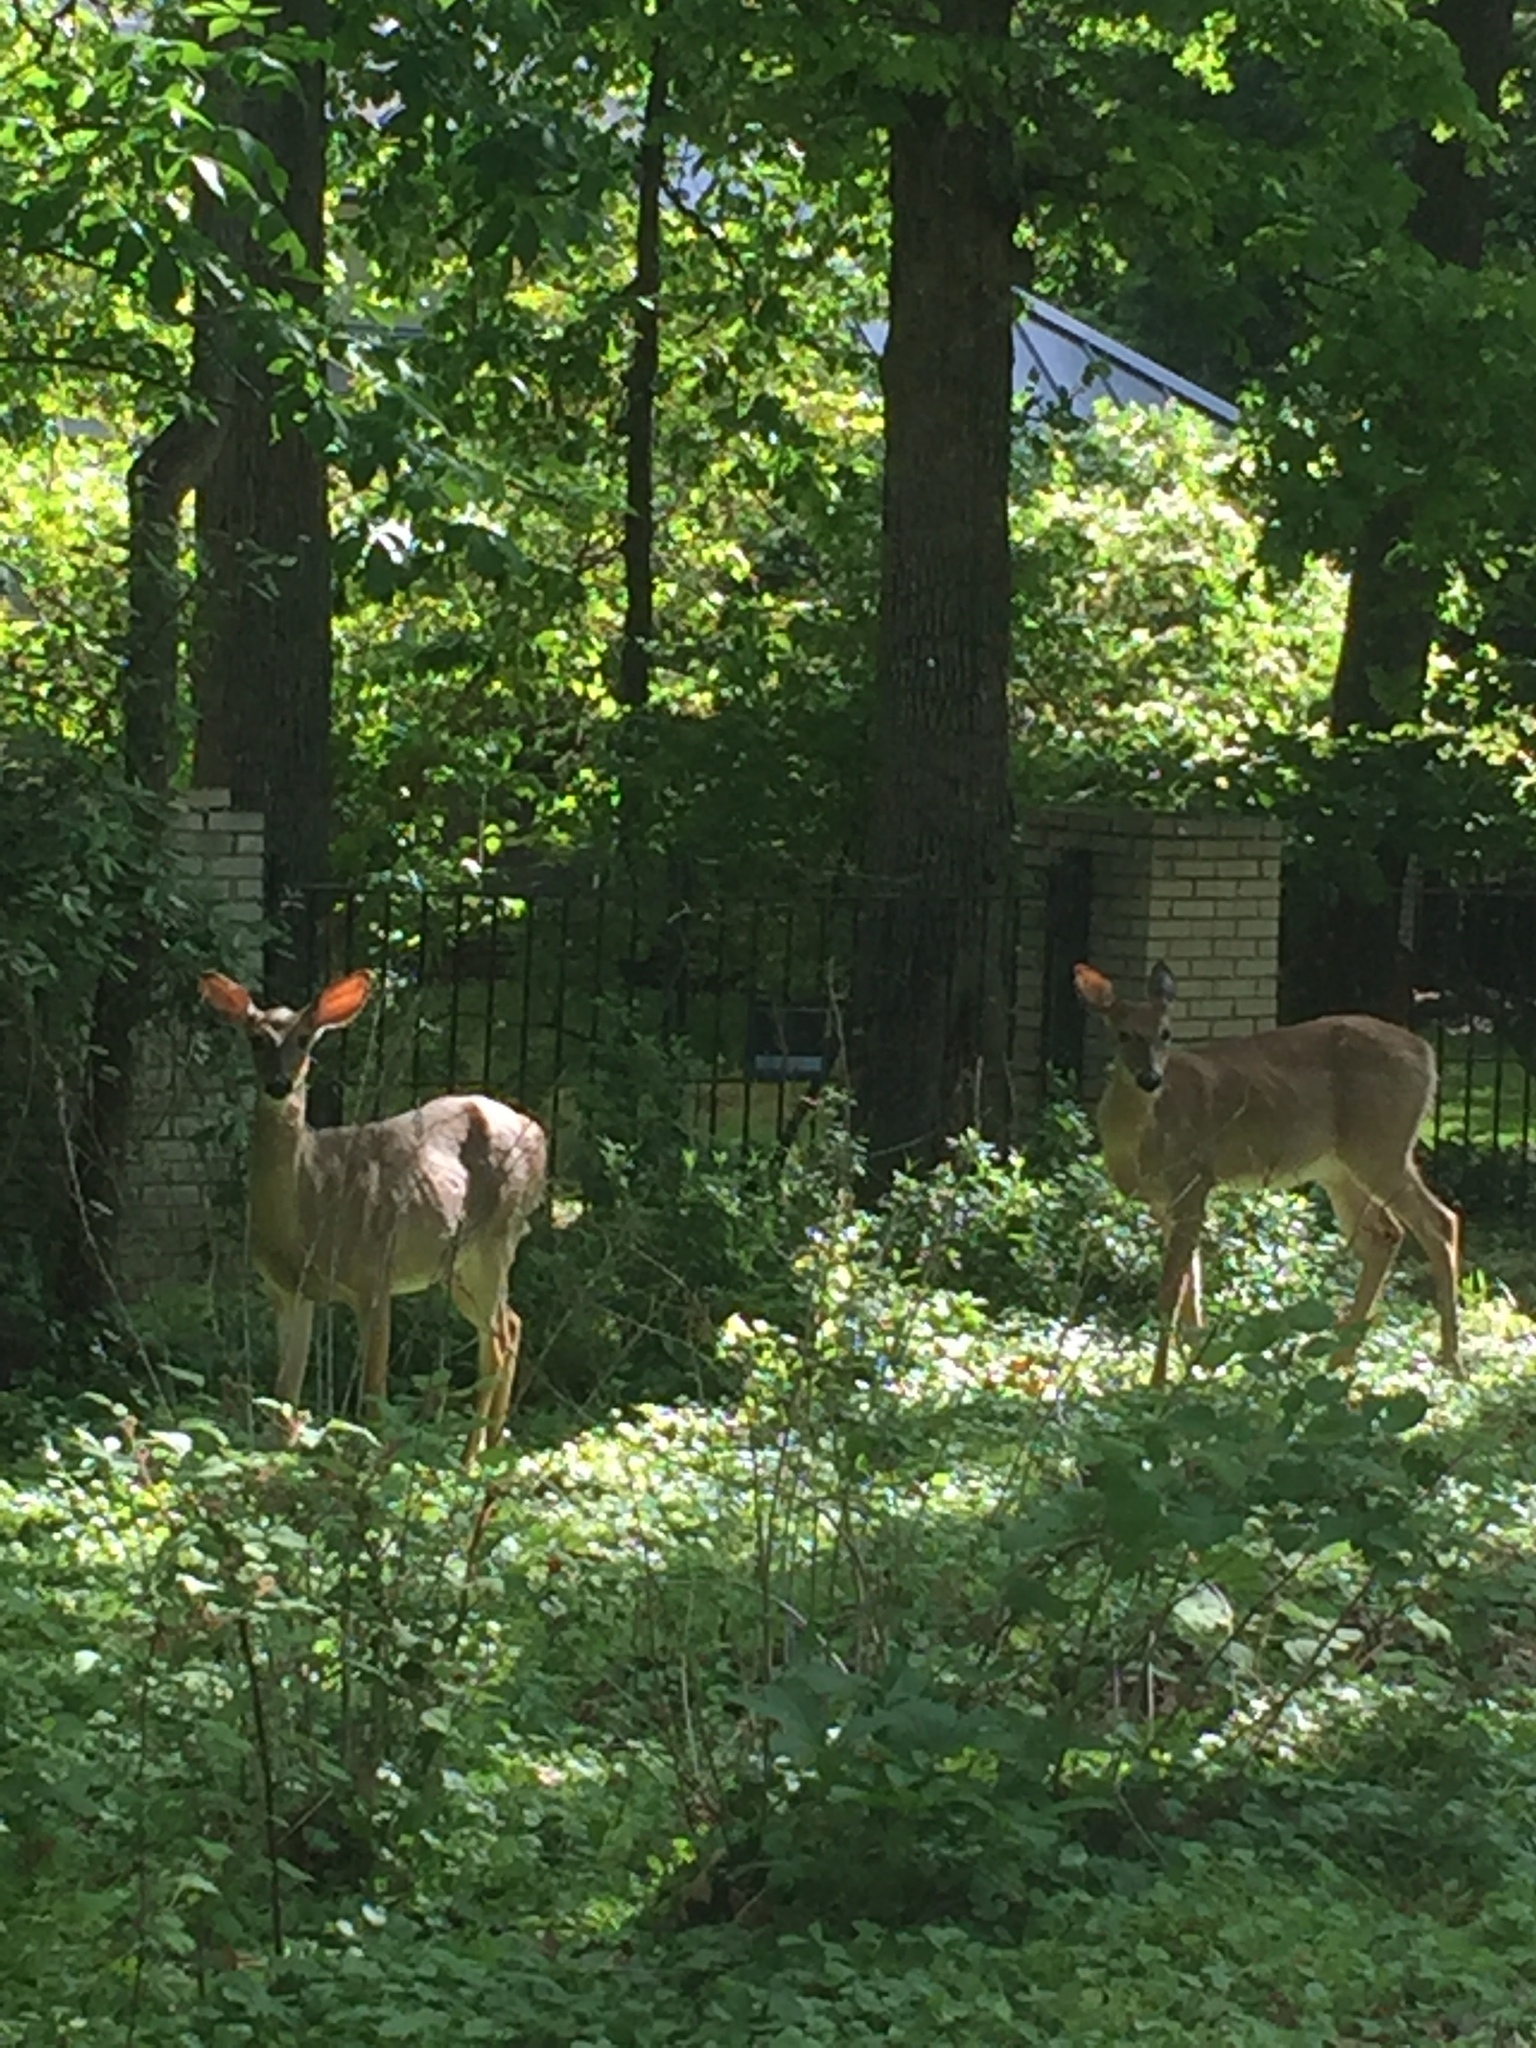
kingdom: Animalia
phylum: Chordata
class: Mammalia
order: Artiodactyla
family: Cervidae
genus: Odocoileus
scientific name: Odocoileus virginianus
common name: White-tailed deer
